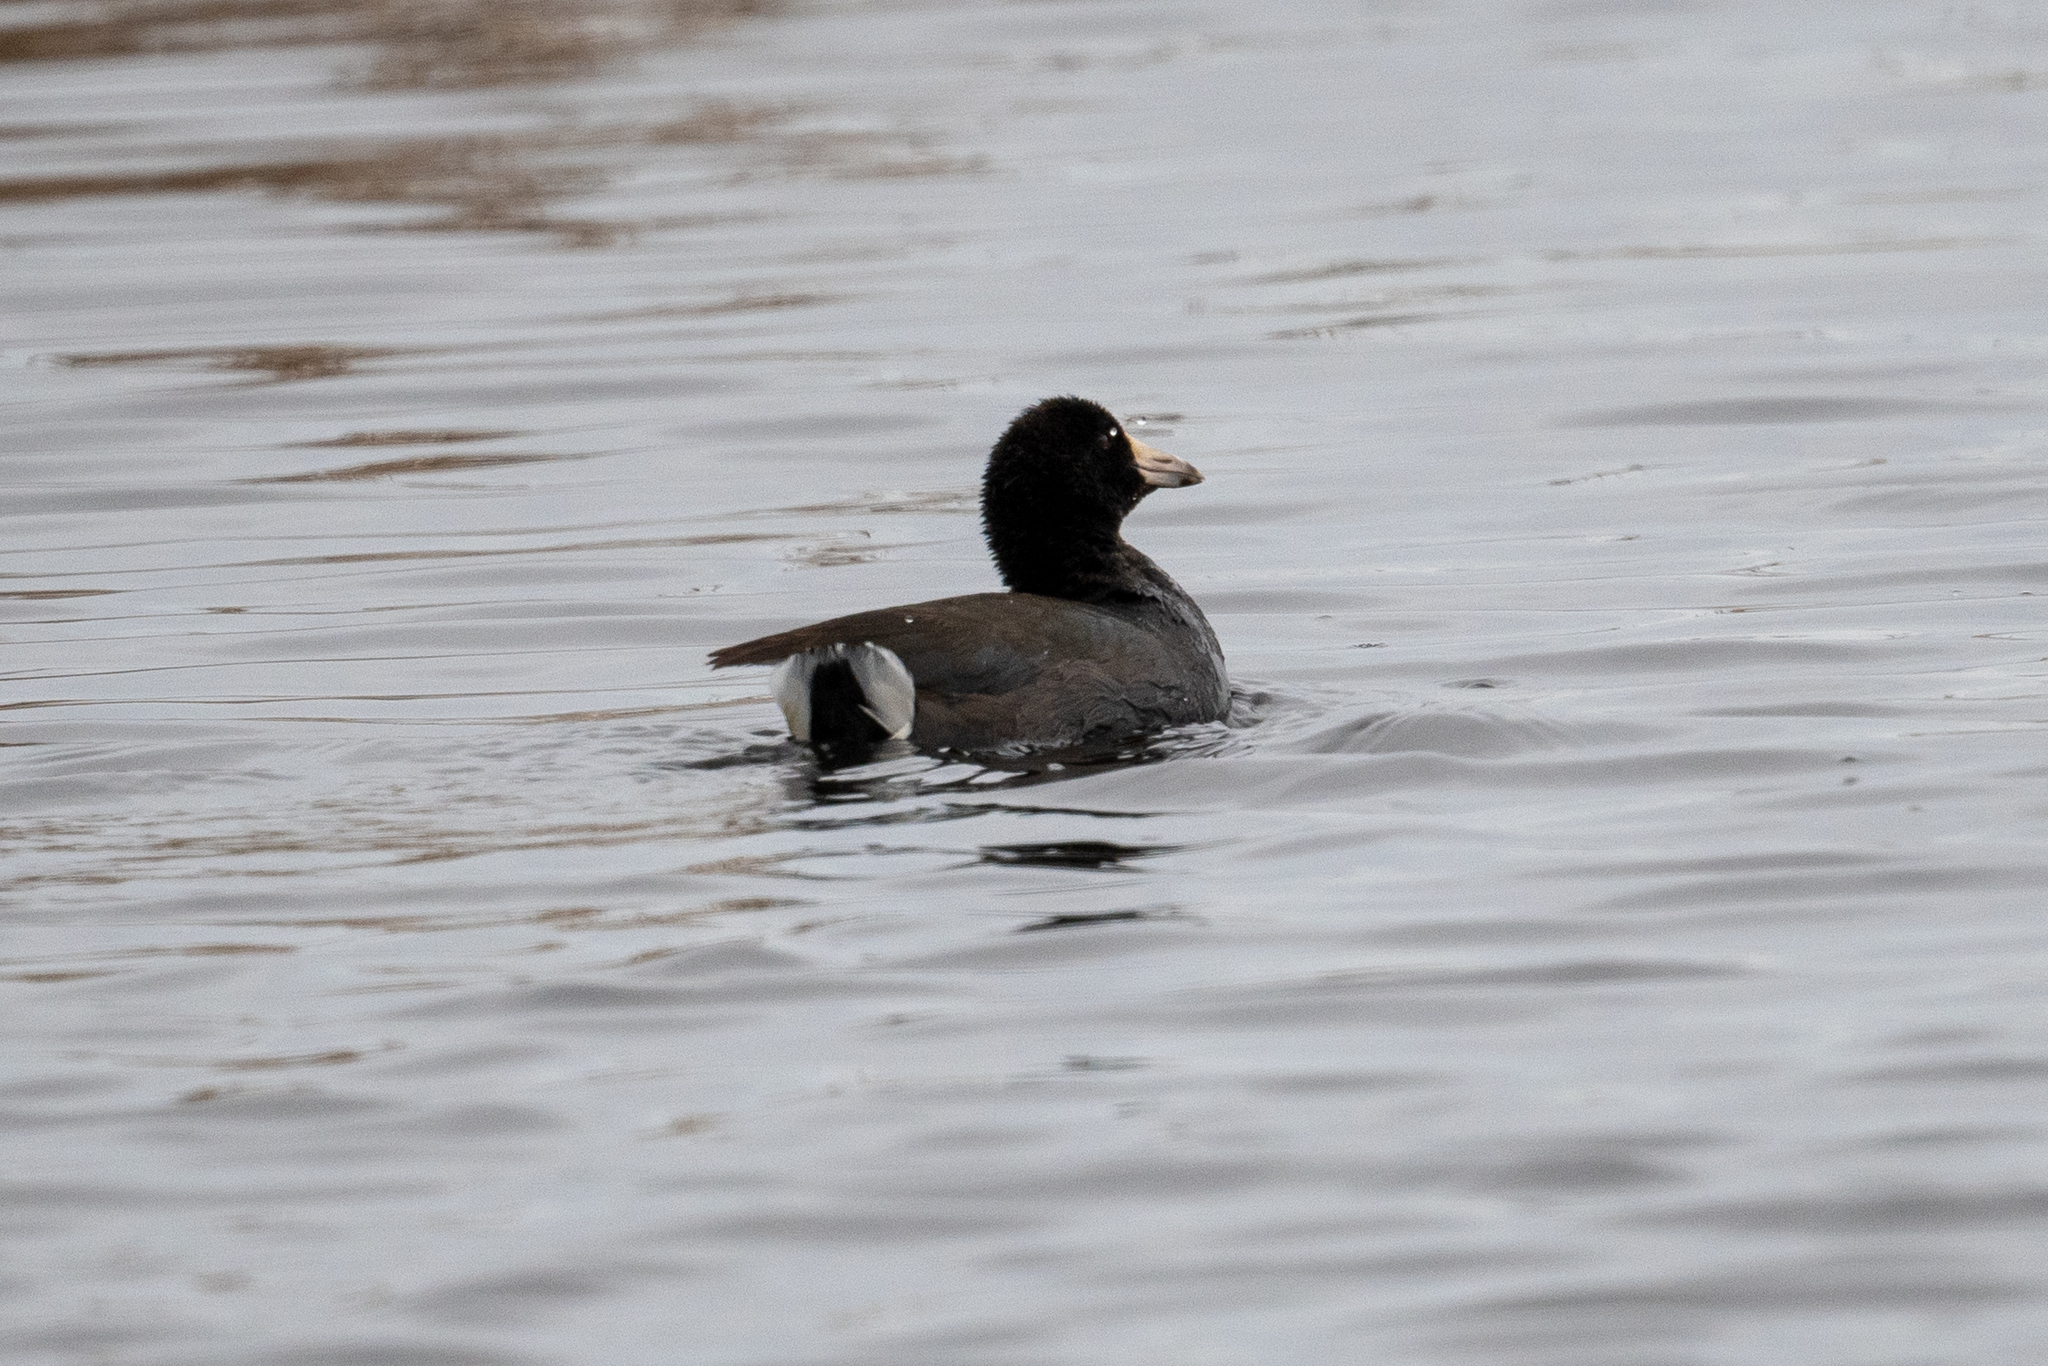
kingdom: Animalia
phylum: Chordata
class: Aves
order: Gruiformes
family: Rallidae
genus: Fulica
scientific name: Fulica americana
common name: American coot
